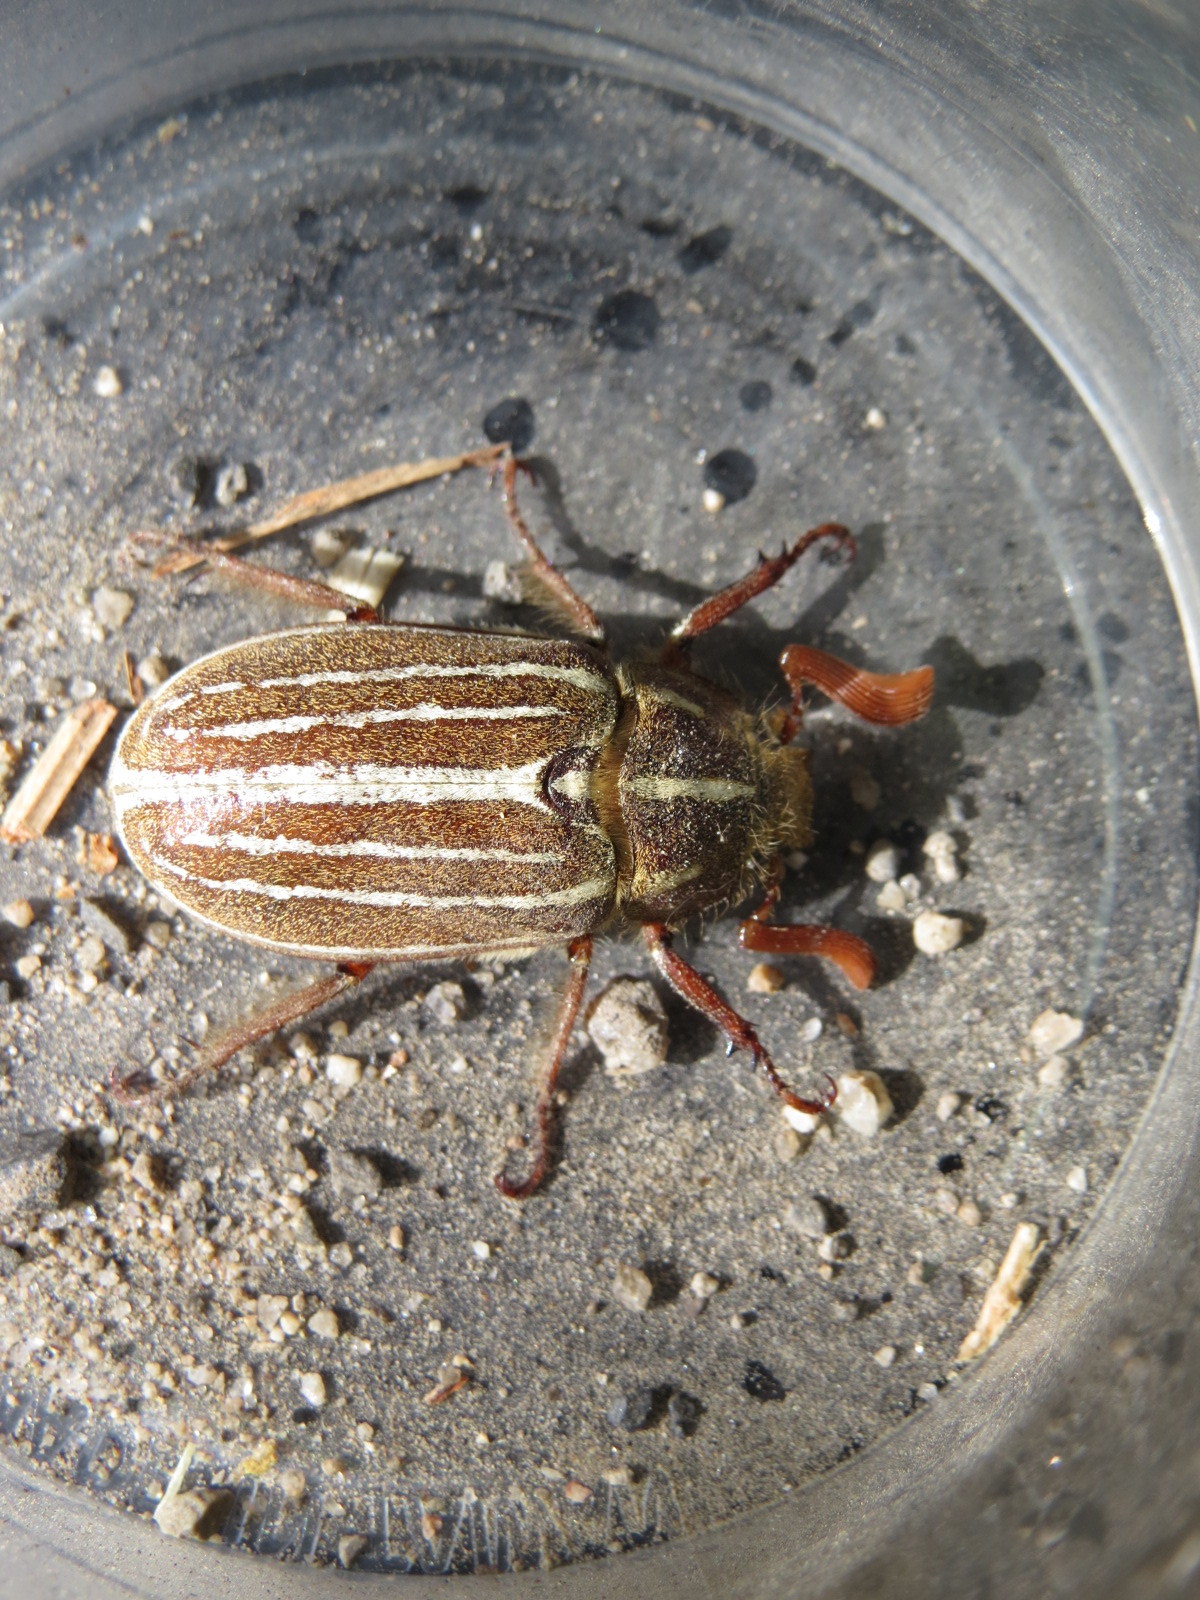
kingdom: Animalia
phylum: Arthropoda
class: Insecta
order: Coleoptera
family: Scarabaeidae
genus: Polyphylla
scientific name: Polyphylla decemlineata
